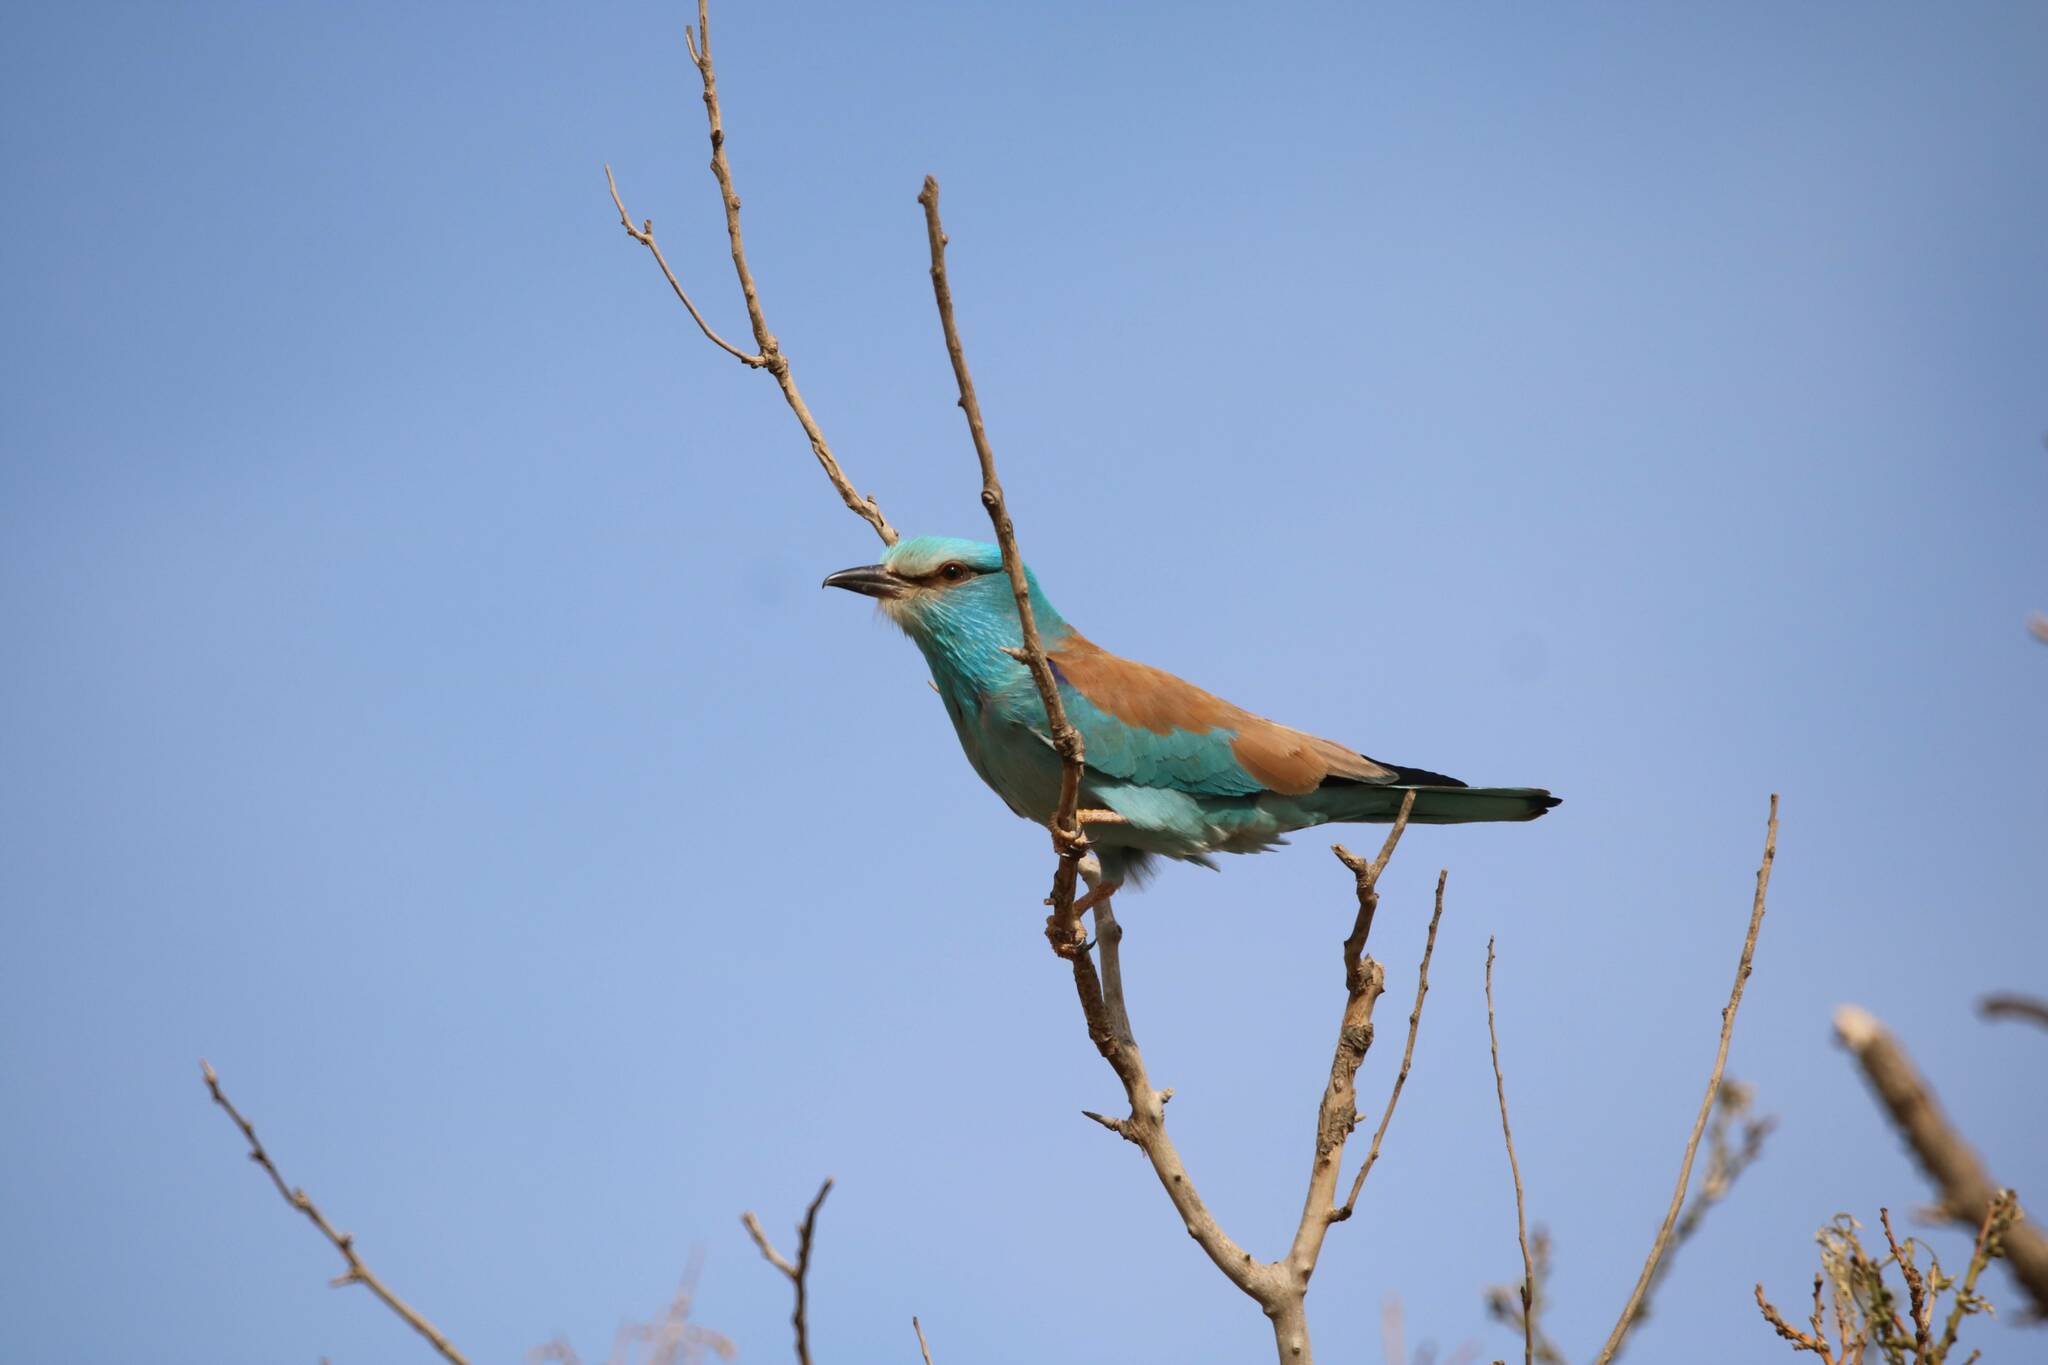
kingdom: Animalia
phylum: Chordata
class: Aves
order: Coraciiformes
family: Coraciidae
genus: Coracias
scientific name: Coracias garrulus
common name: European roller
